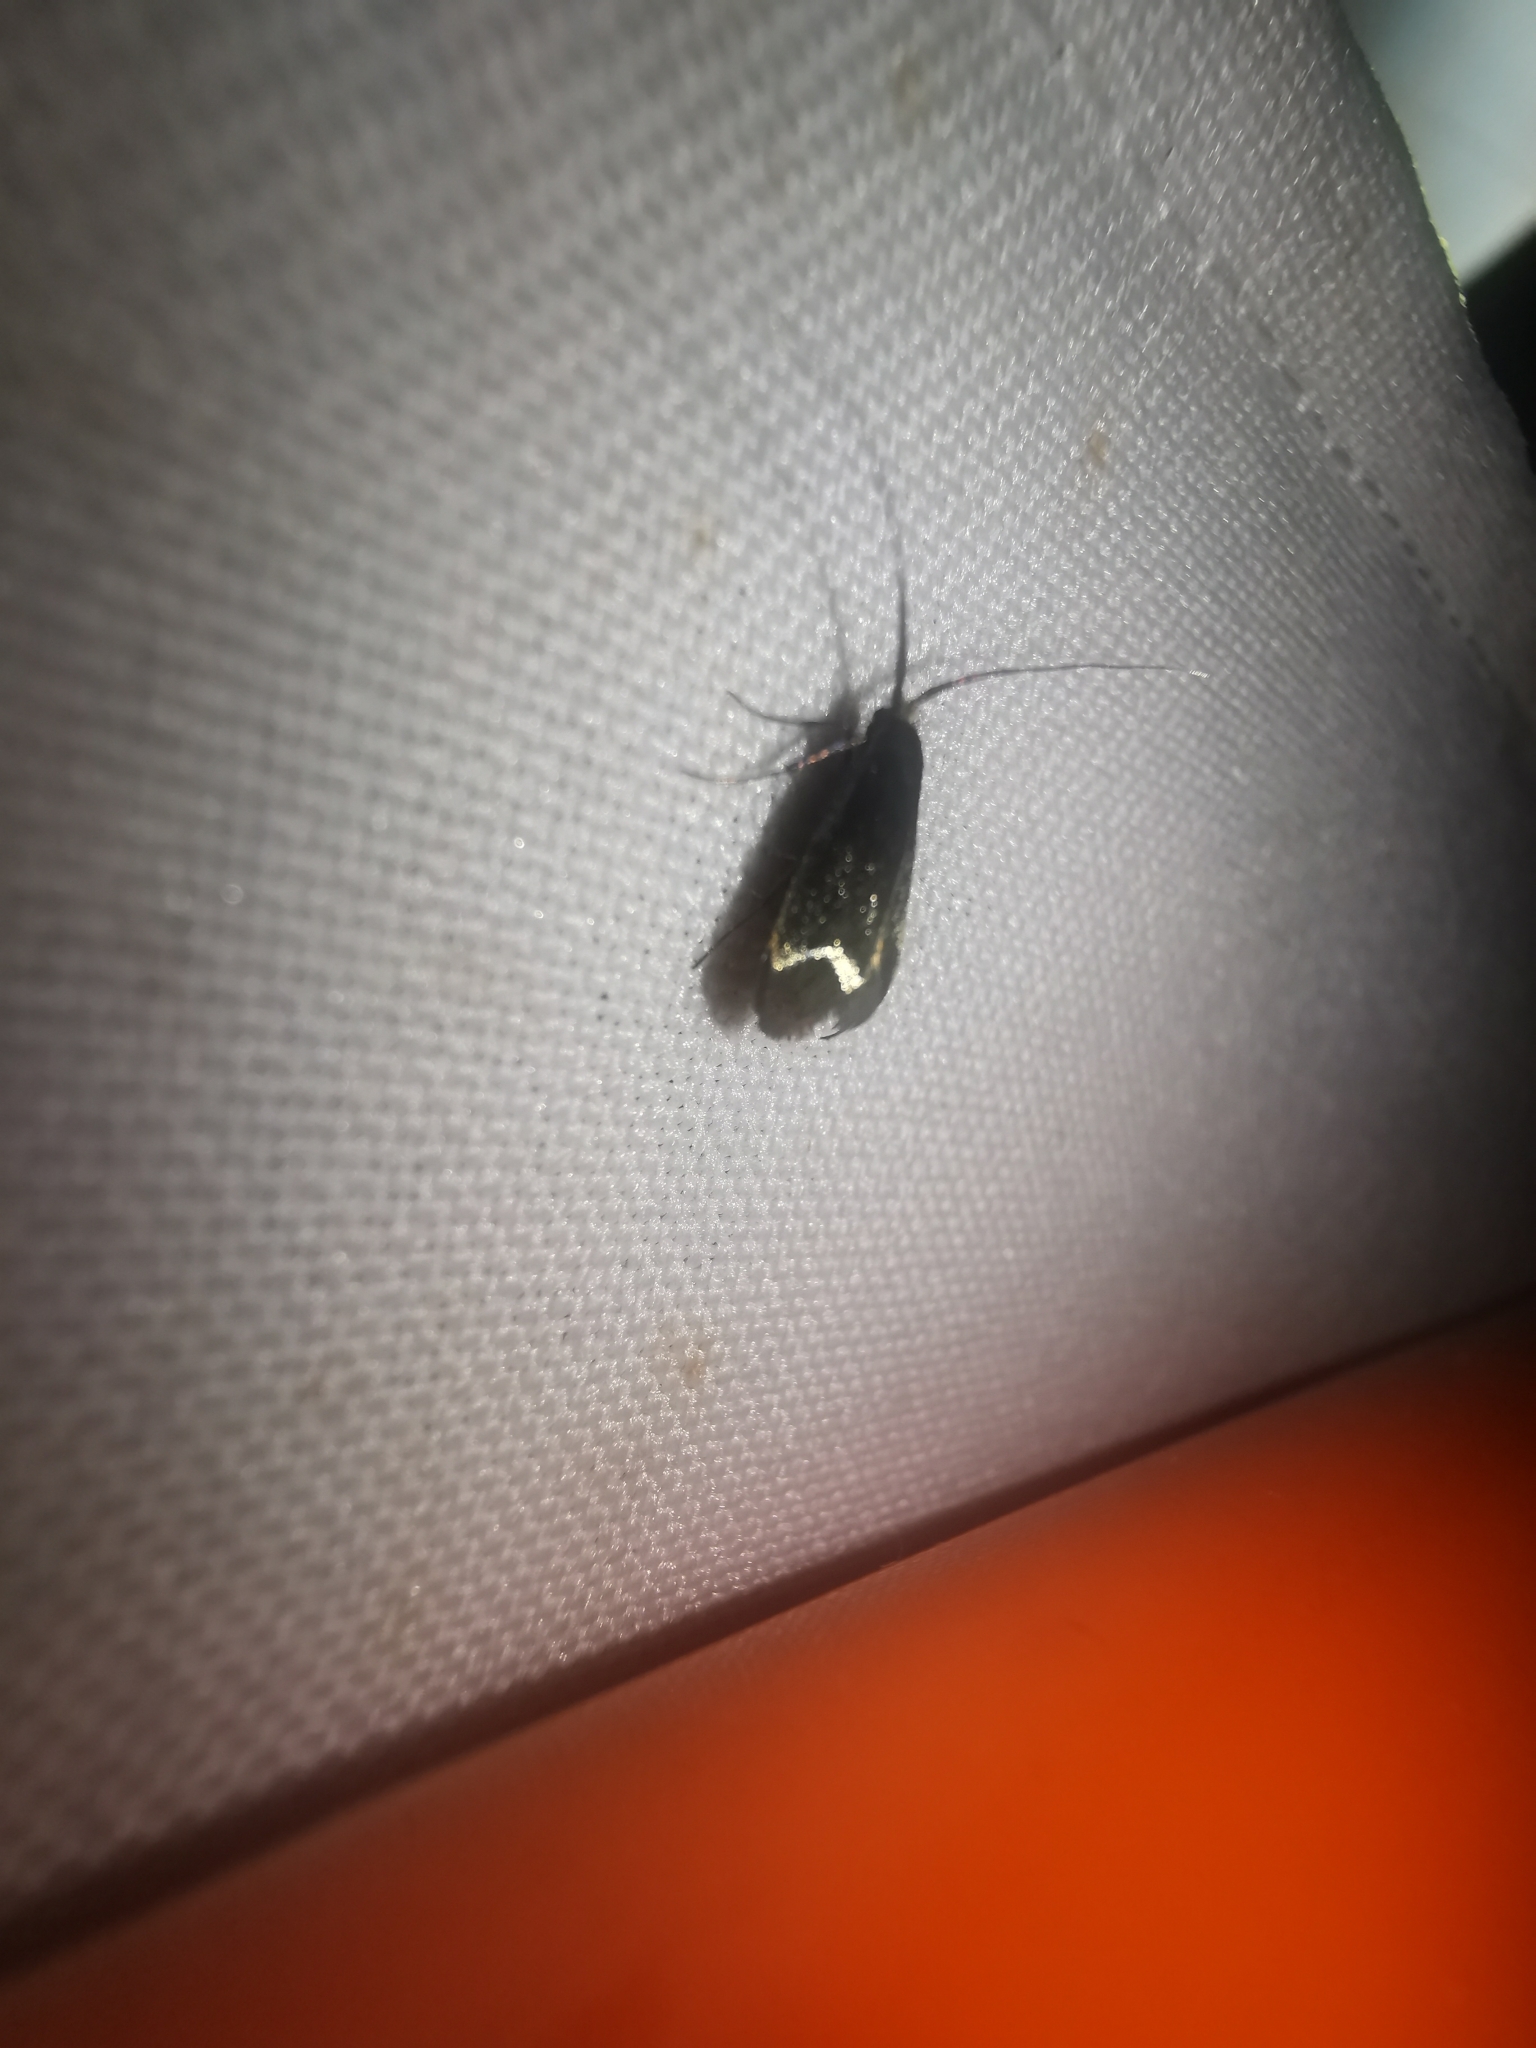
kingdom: Animalia
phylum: Arthropoda
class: Insecta
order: Lepidoptera
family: Adelidae
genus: Adela
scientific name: Adela viridella
